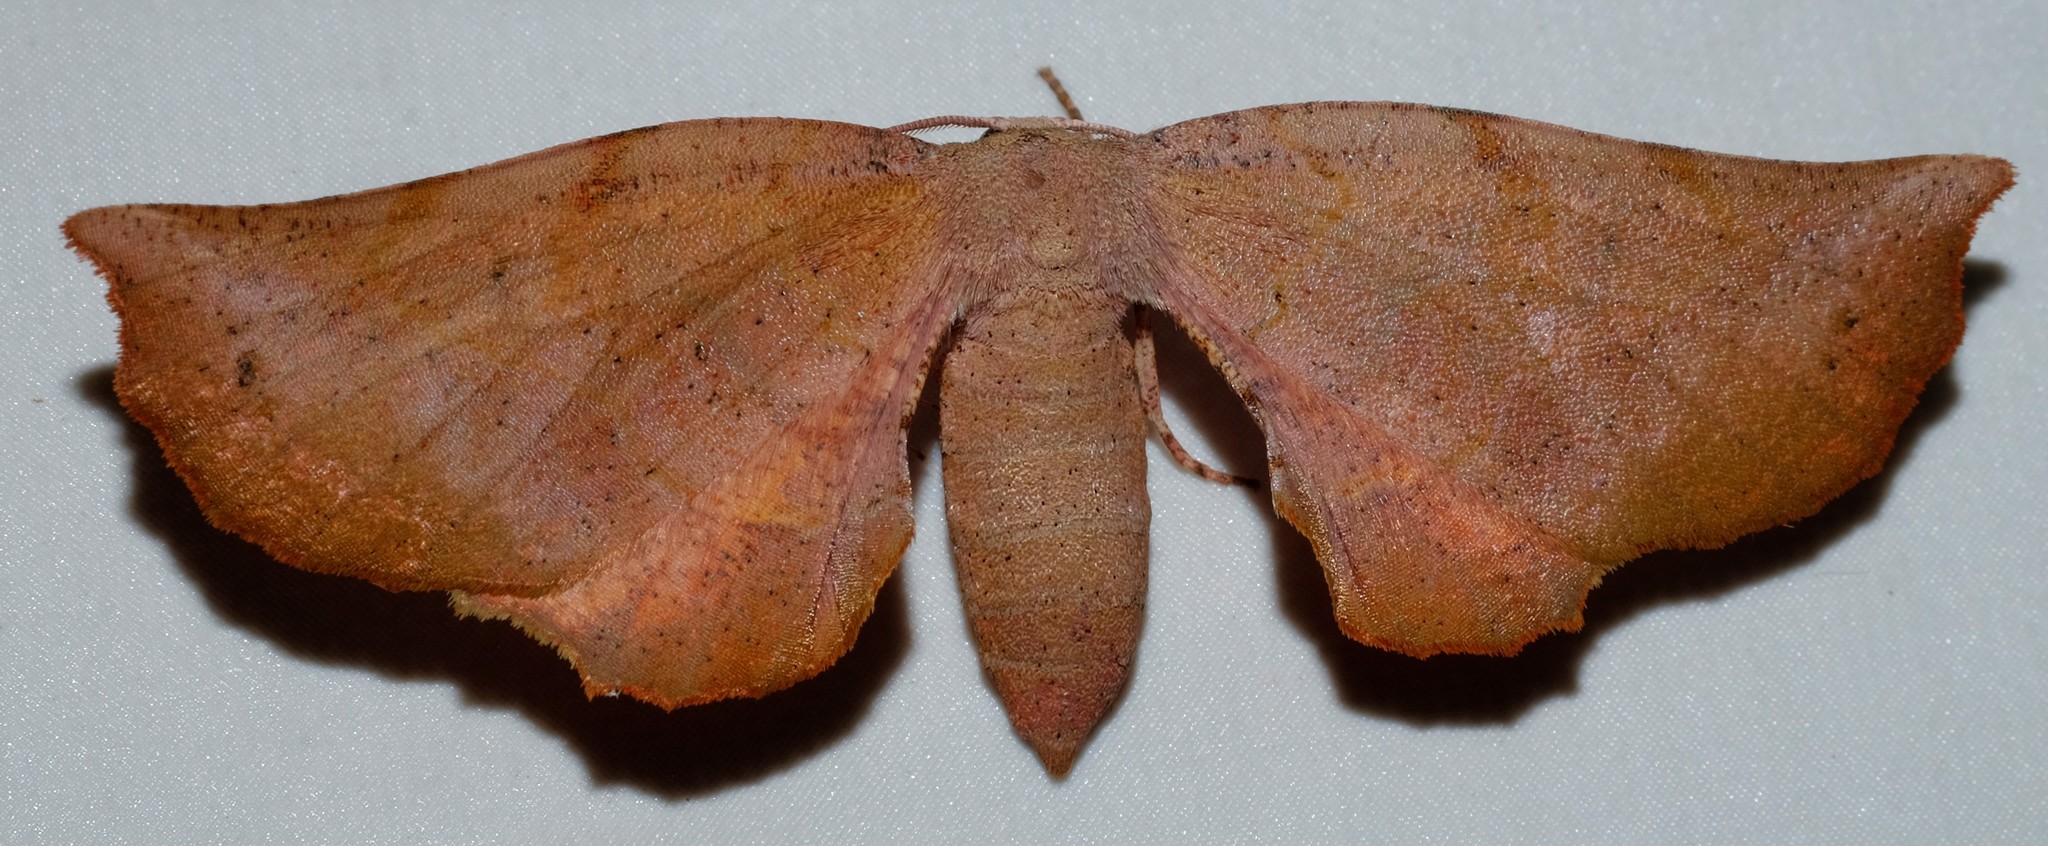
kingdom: Animalia
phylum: Arthropoda
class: Insecta
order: Lepidoptera
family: Geometridae
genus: Parepisparis
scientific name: Parepisparis multicolora
